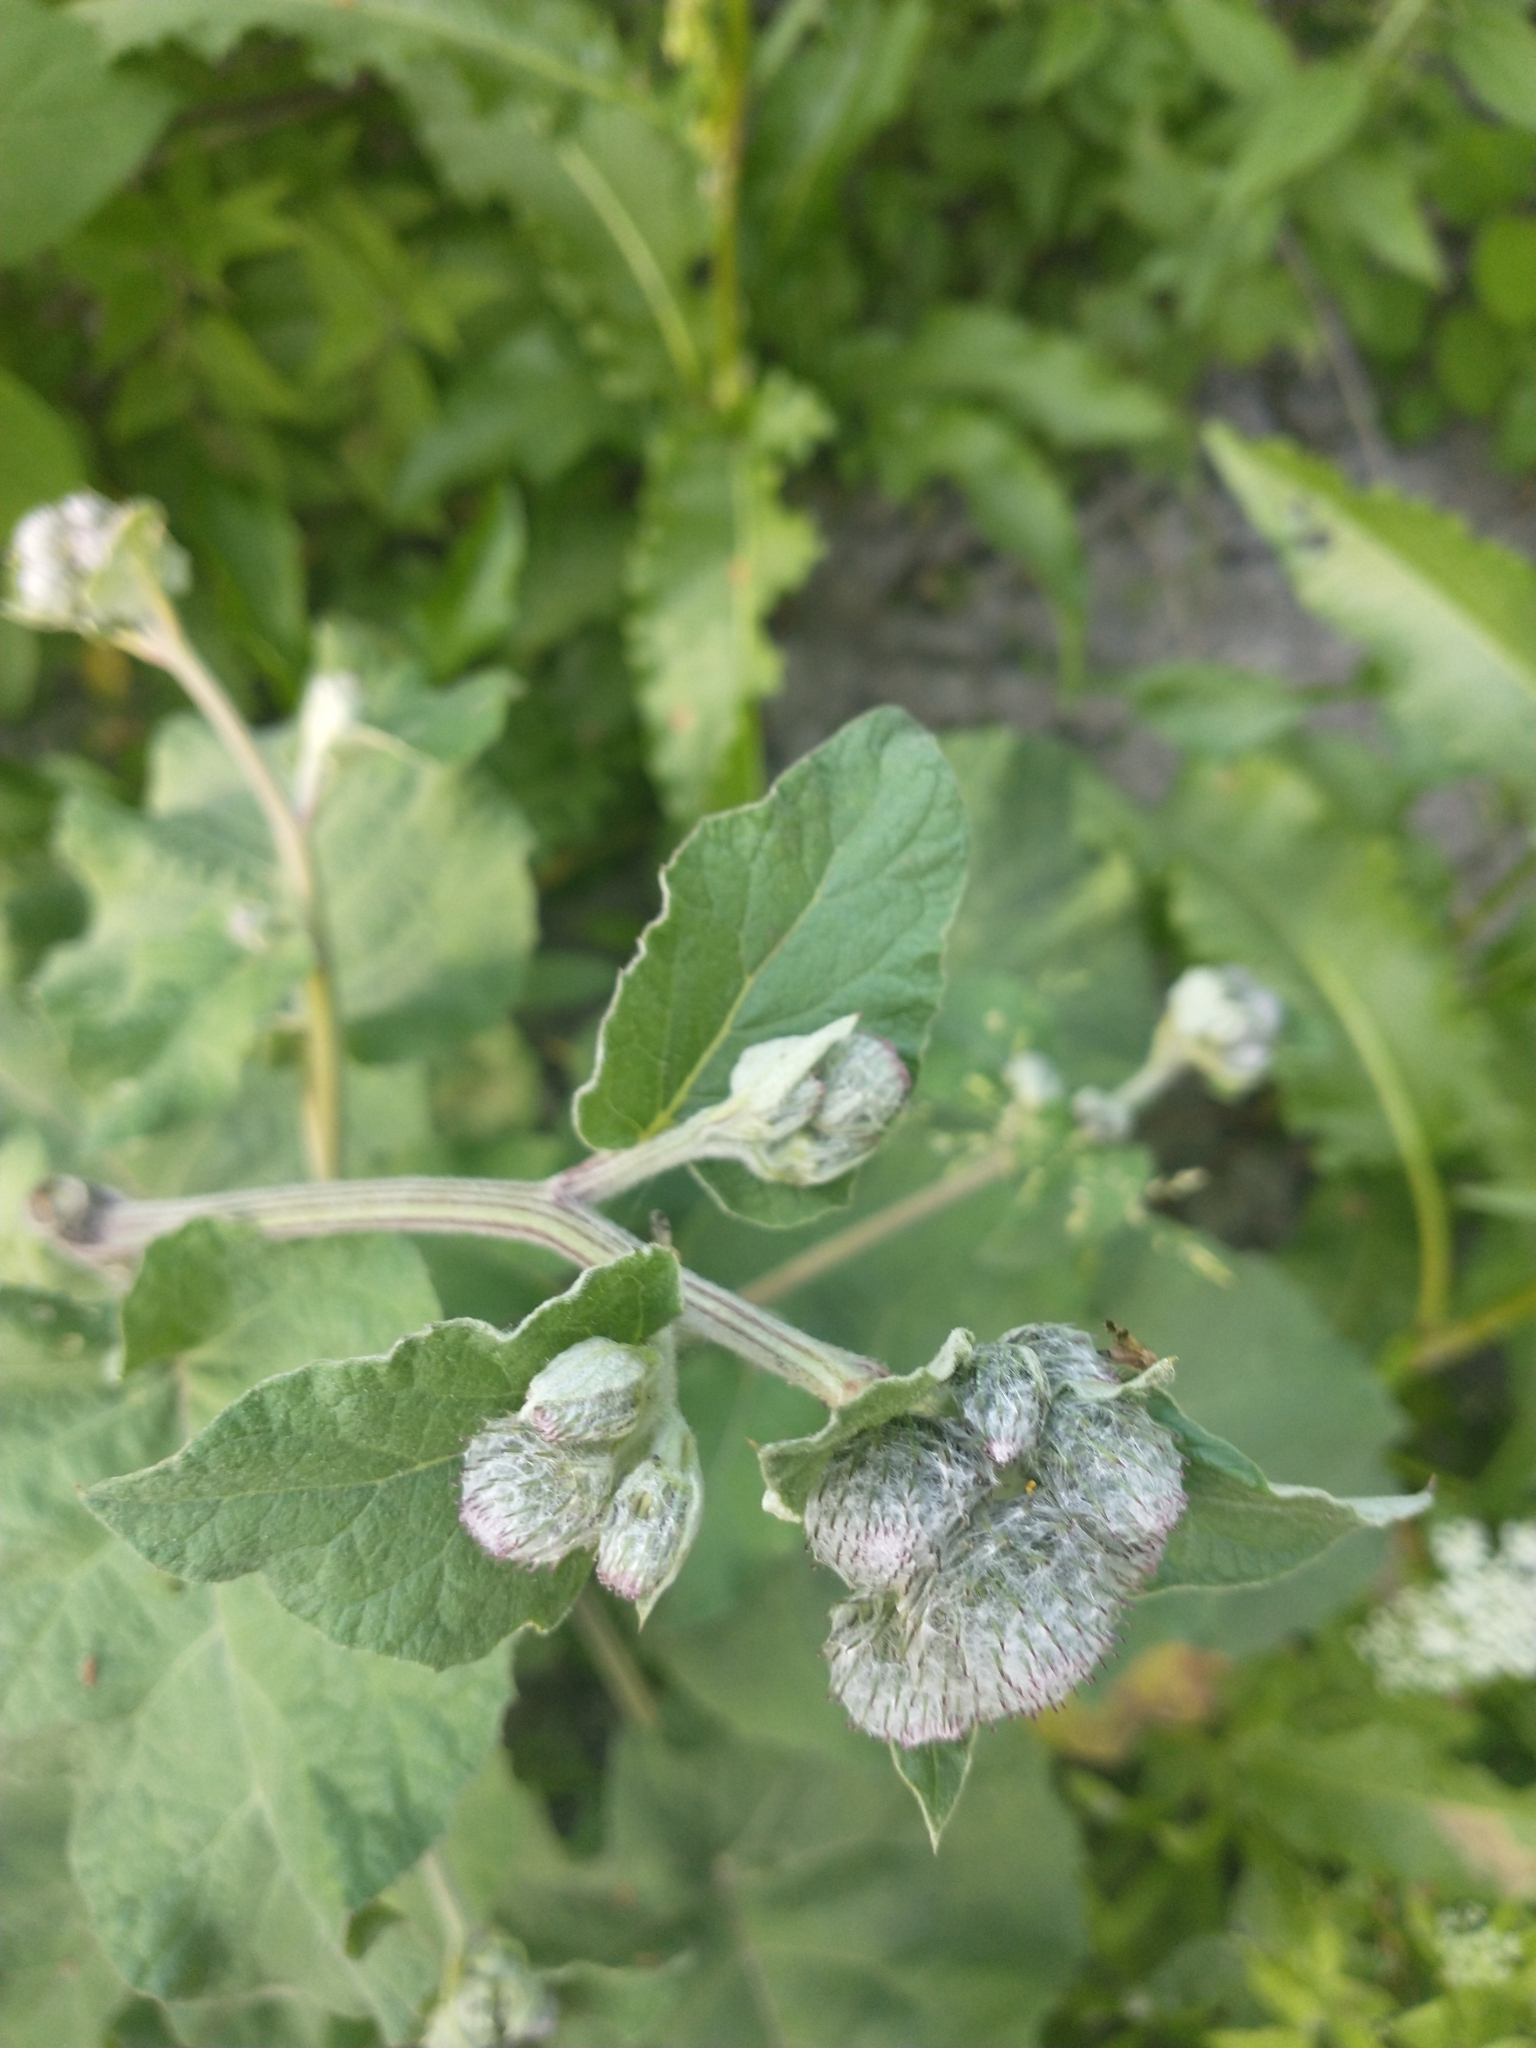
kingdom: Plantae
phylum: Tracheophyta
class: Magnoliopsida
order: Asterales
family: Asteraceae
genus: Arctium
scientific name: Arctium tomentosum
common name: Woolly burdock
